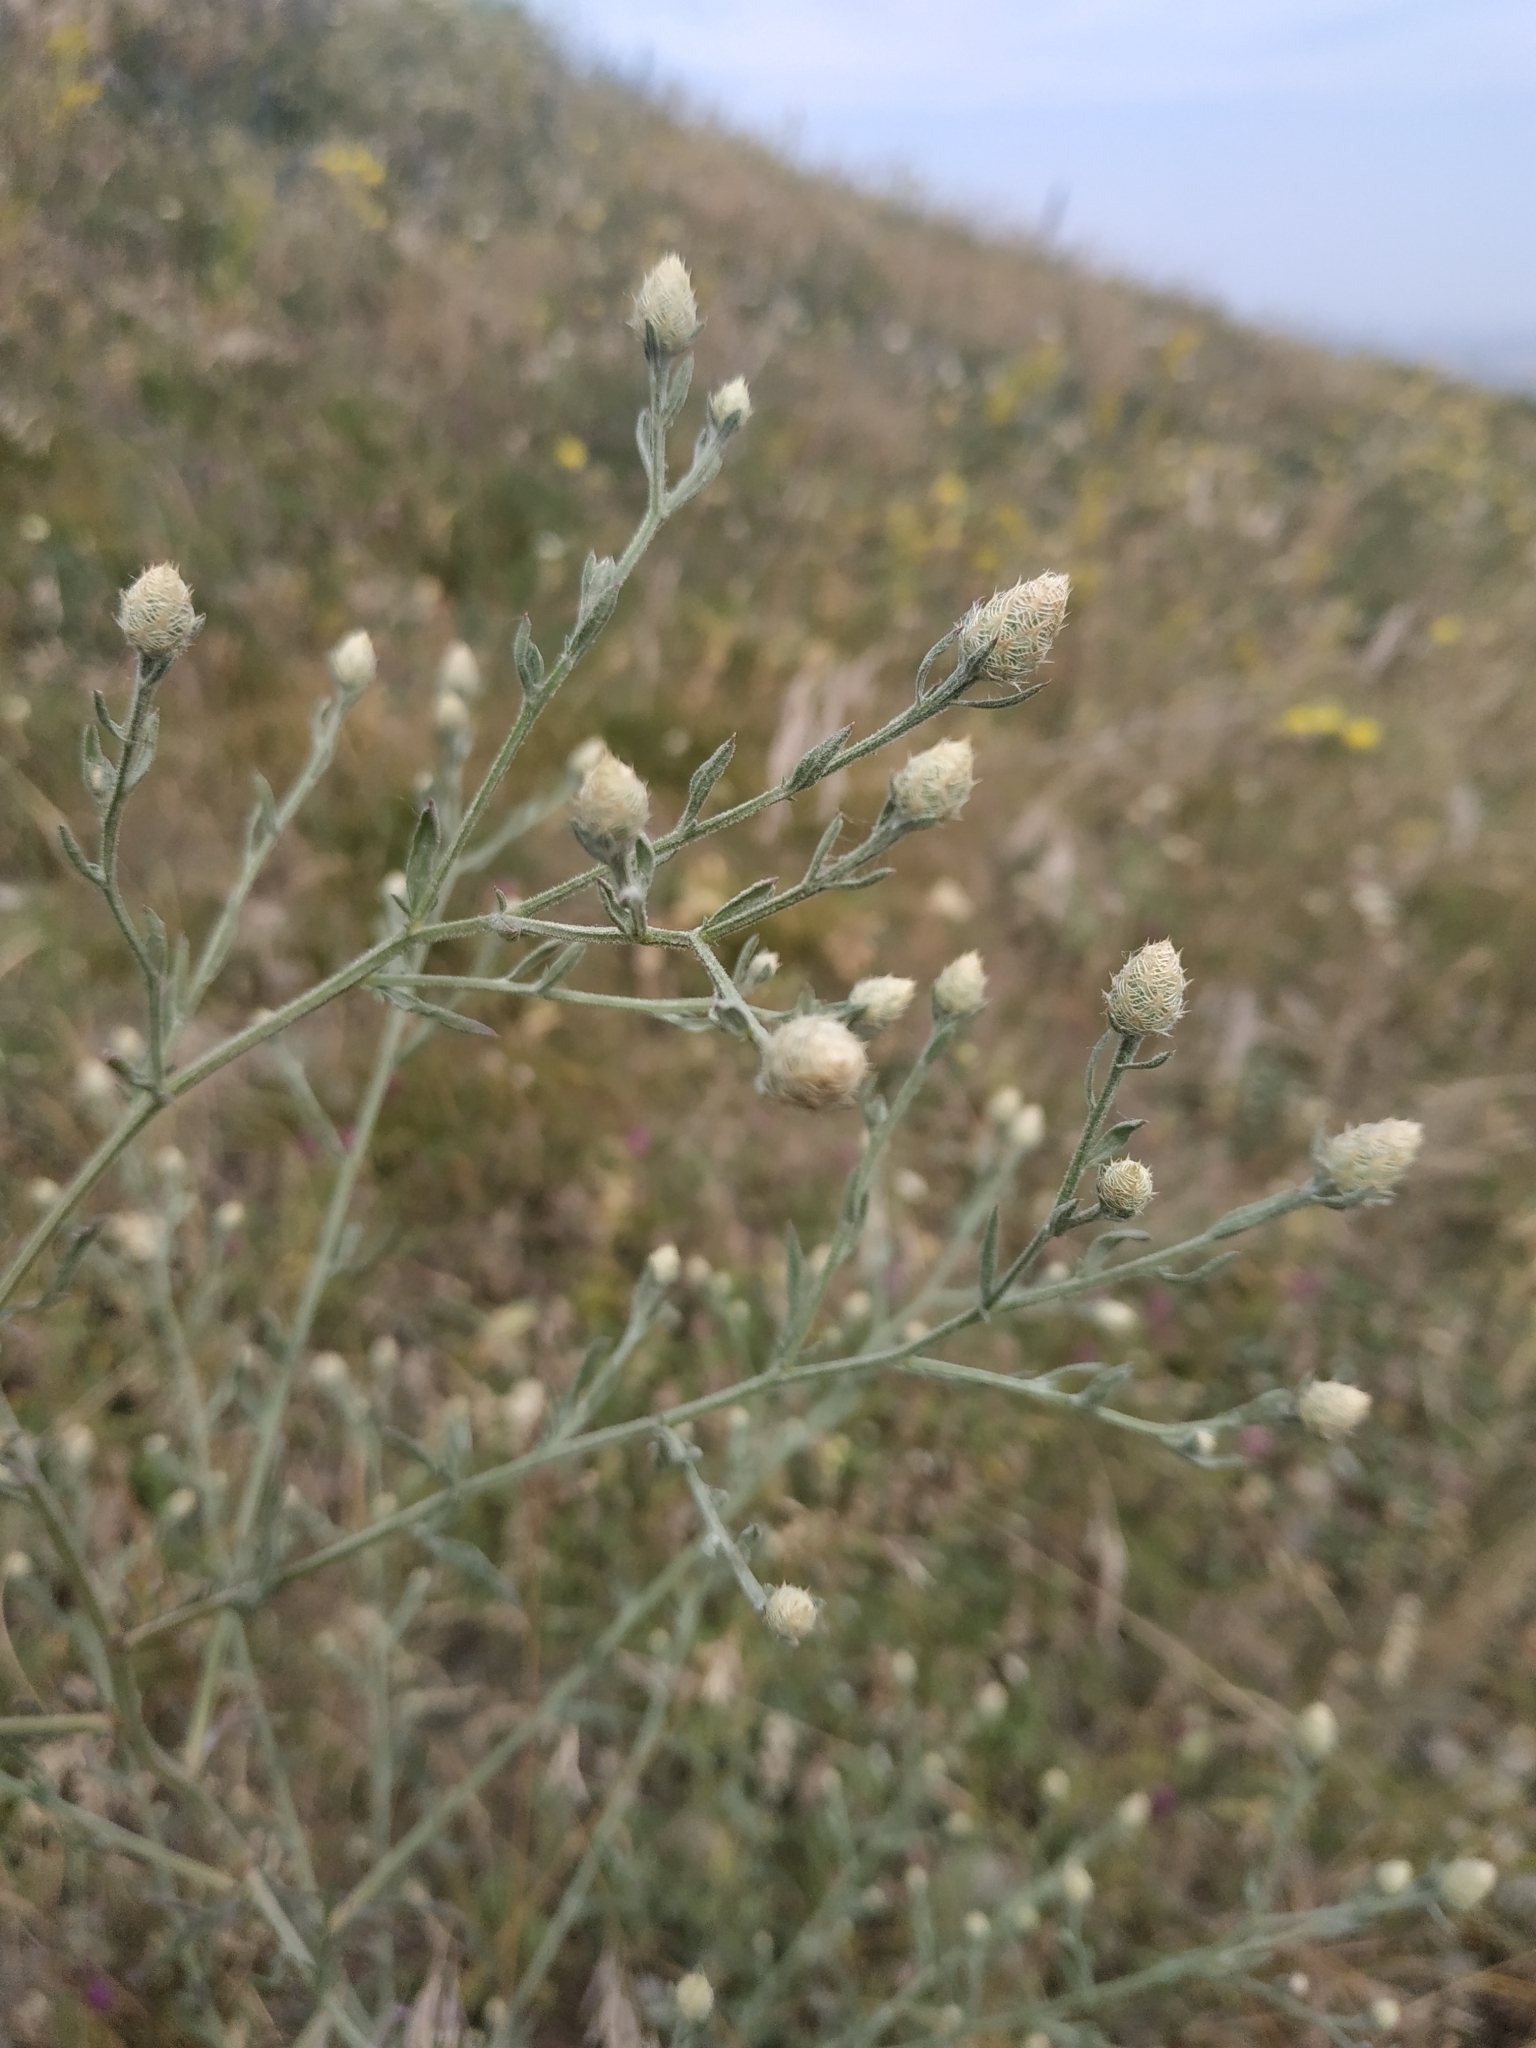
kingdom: Plantae
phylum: Tracheophyta
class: Magnoliopsida
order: Asterales
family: Asteraceae
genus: Centaurea
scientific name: Centaurea diffusa
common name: Diffuse knapweed
